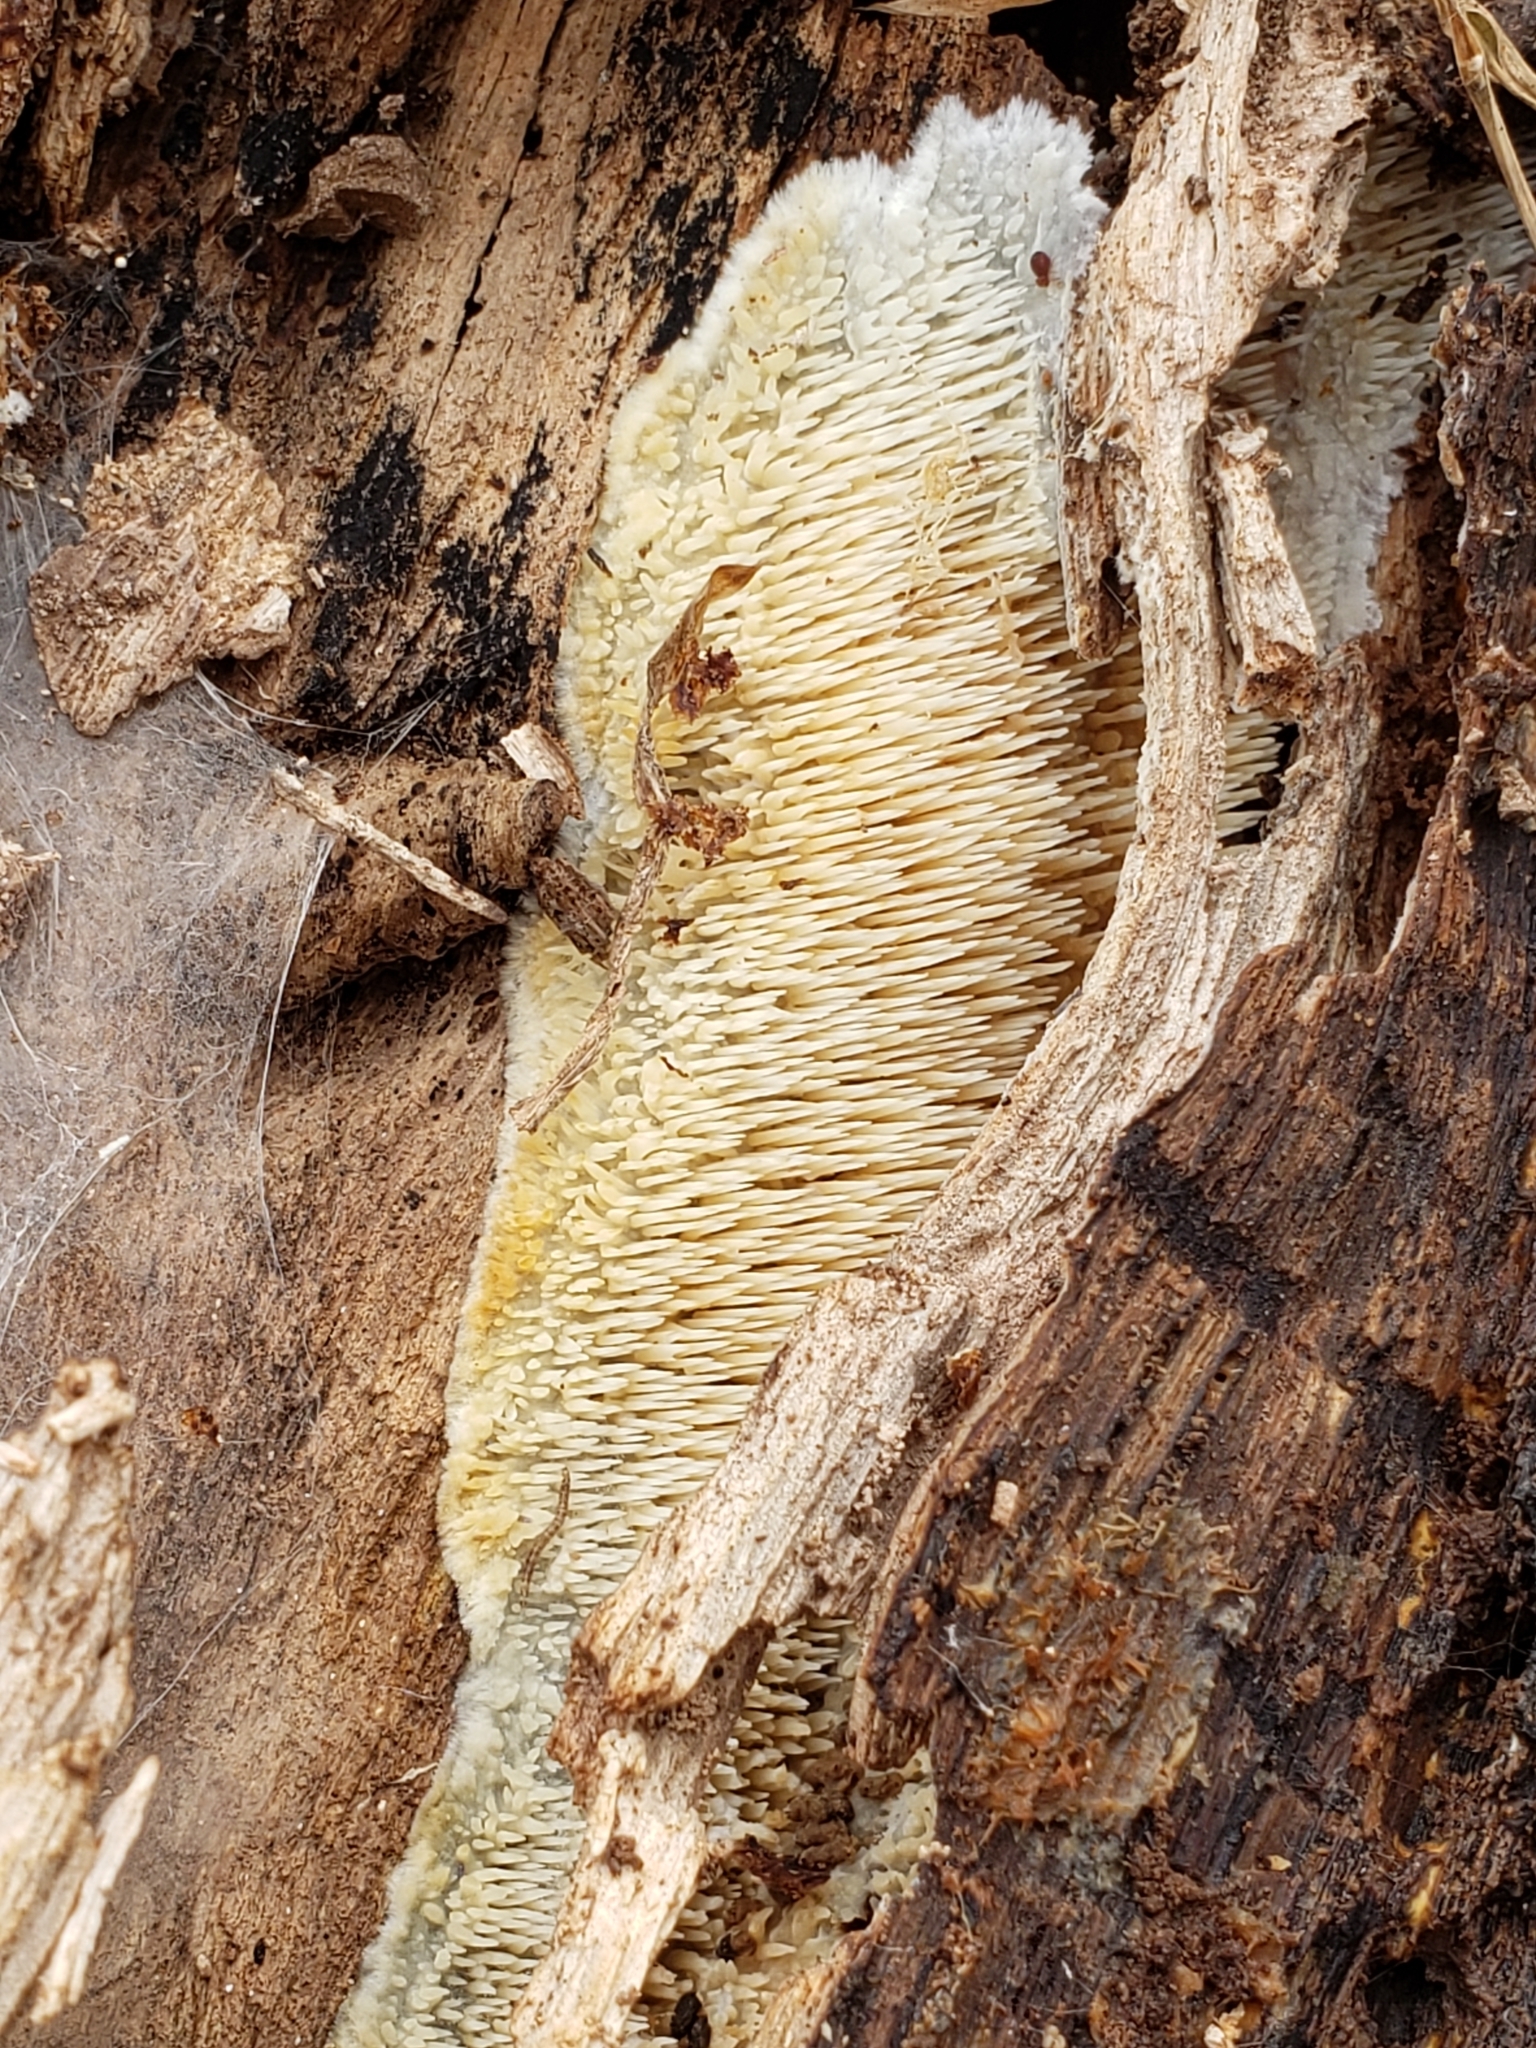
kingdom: Fungi
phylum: Basidiomycota
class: Agaricomycetes
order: Agaricales
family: Radulomycetaceae
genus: Radulomyces
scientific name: Radulomyces copelandii
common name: Asian beauty
